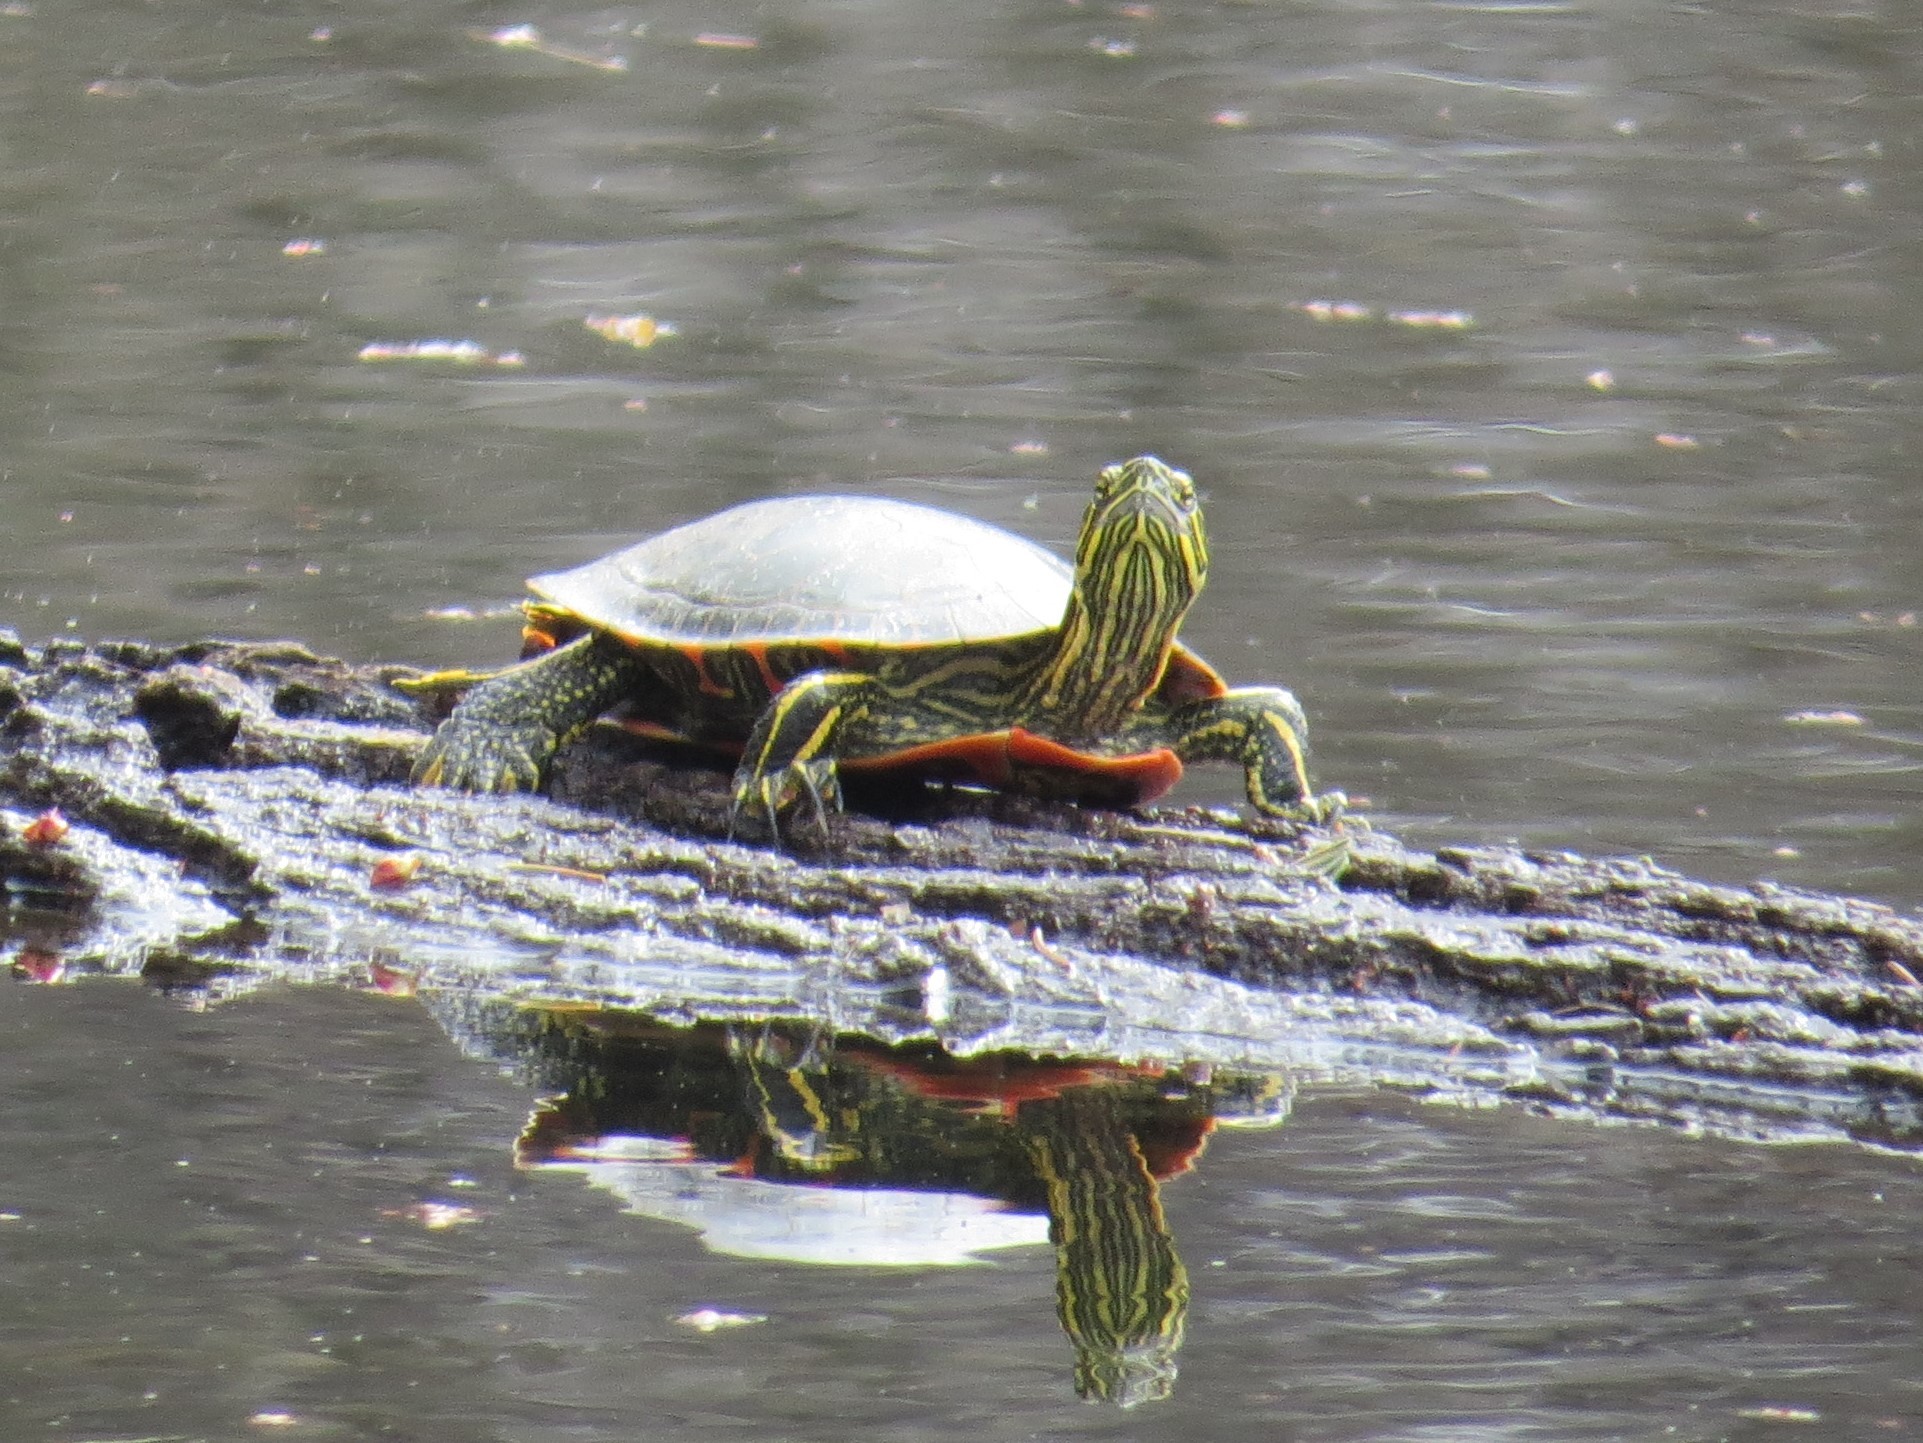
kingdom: Animalia
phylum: Chordata
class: Testudines
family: Emydidae
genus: Chrysemys
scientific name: Chrysemys picta
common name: Painted turtle
